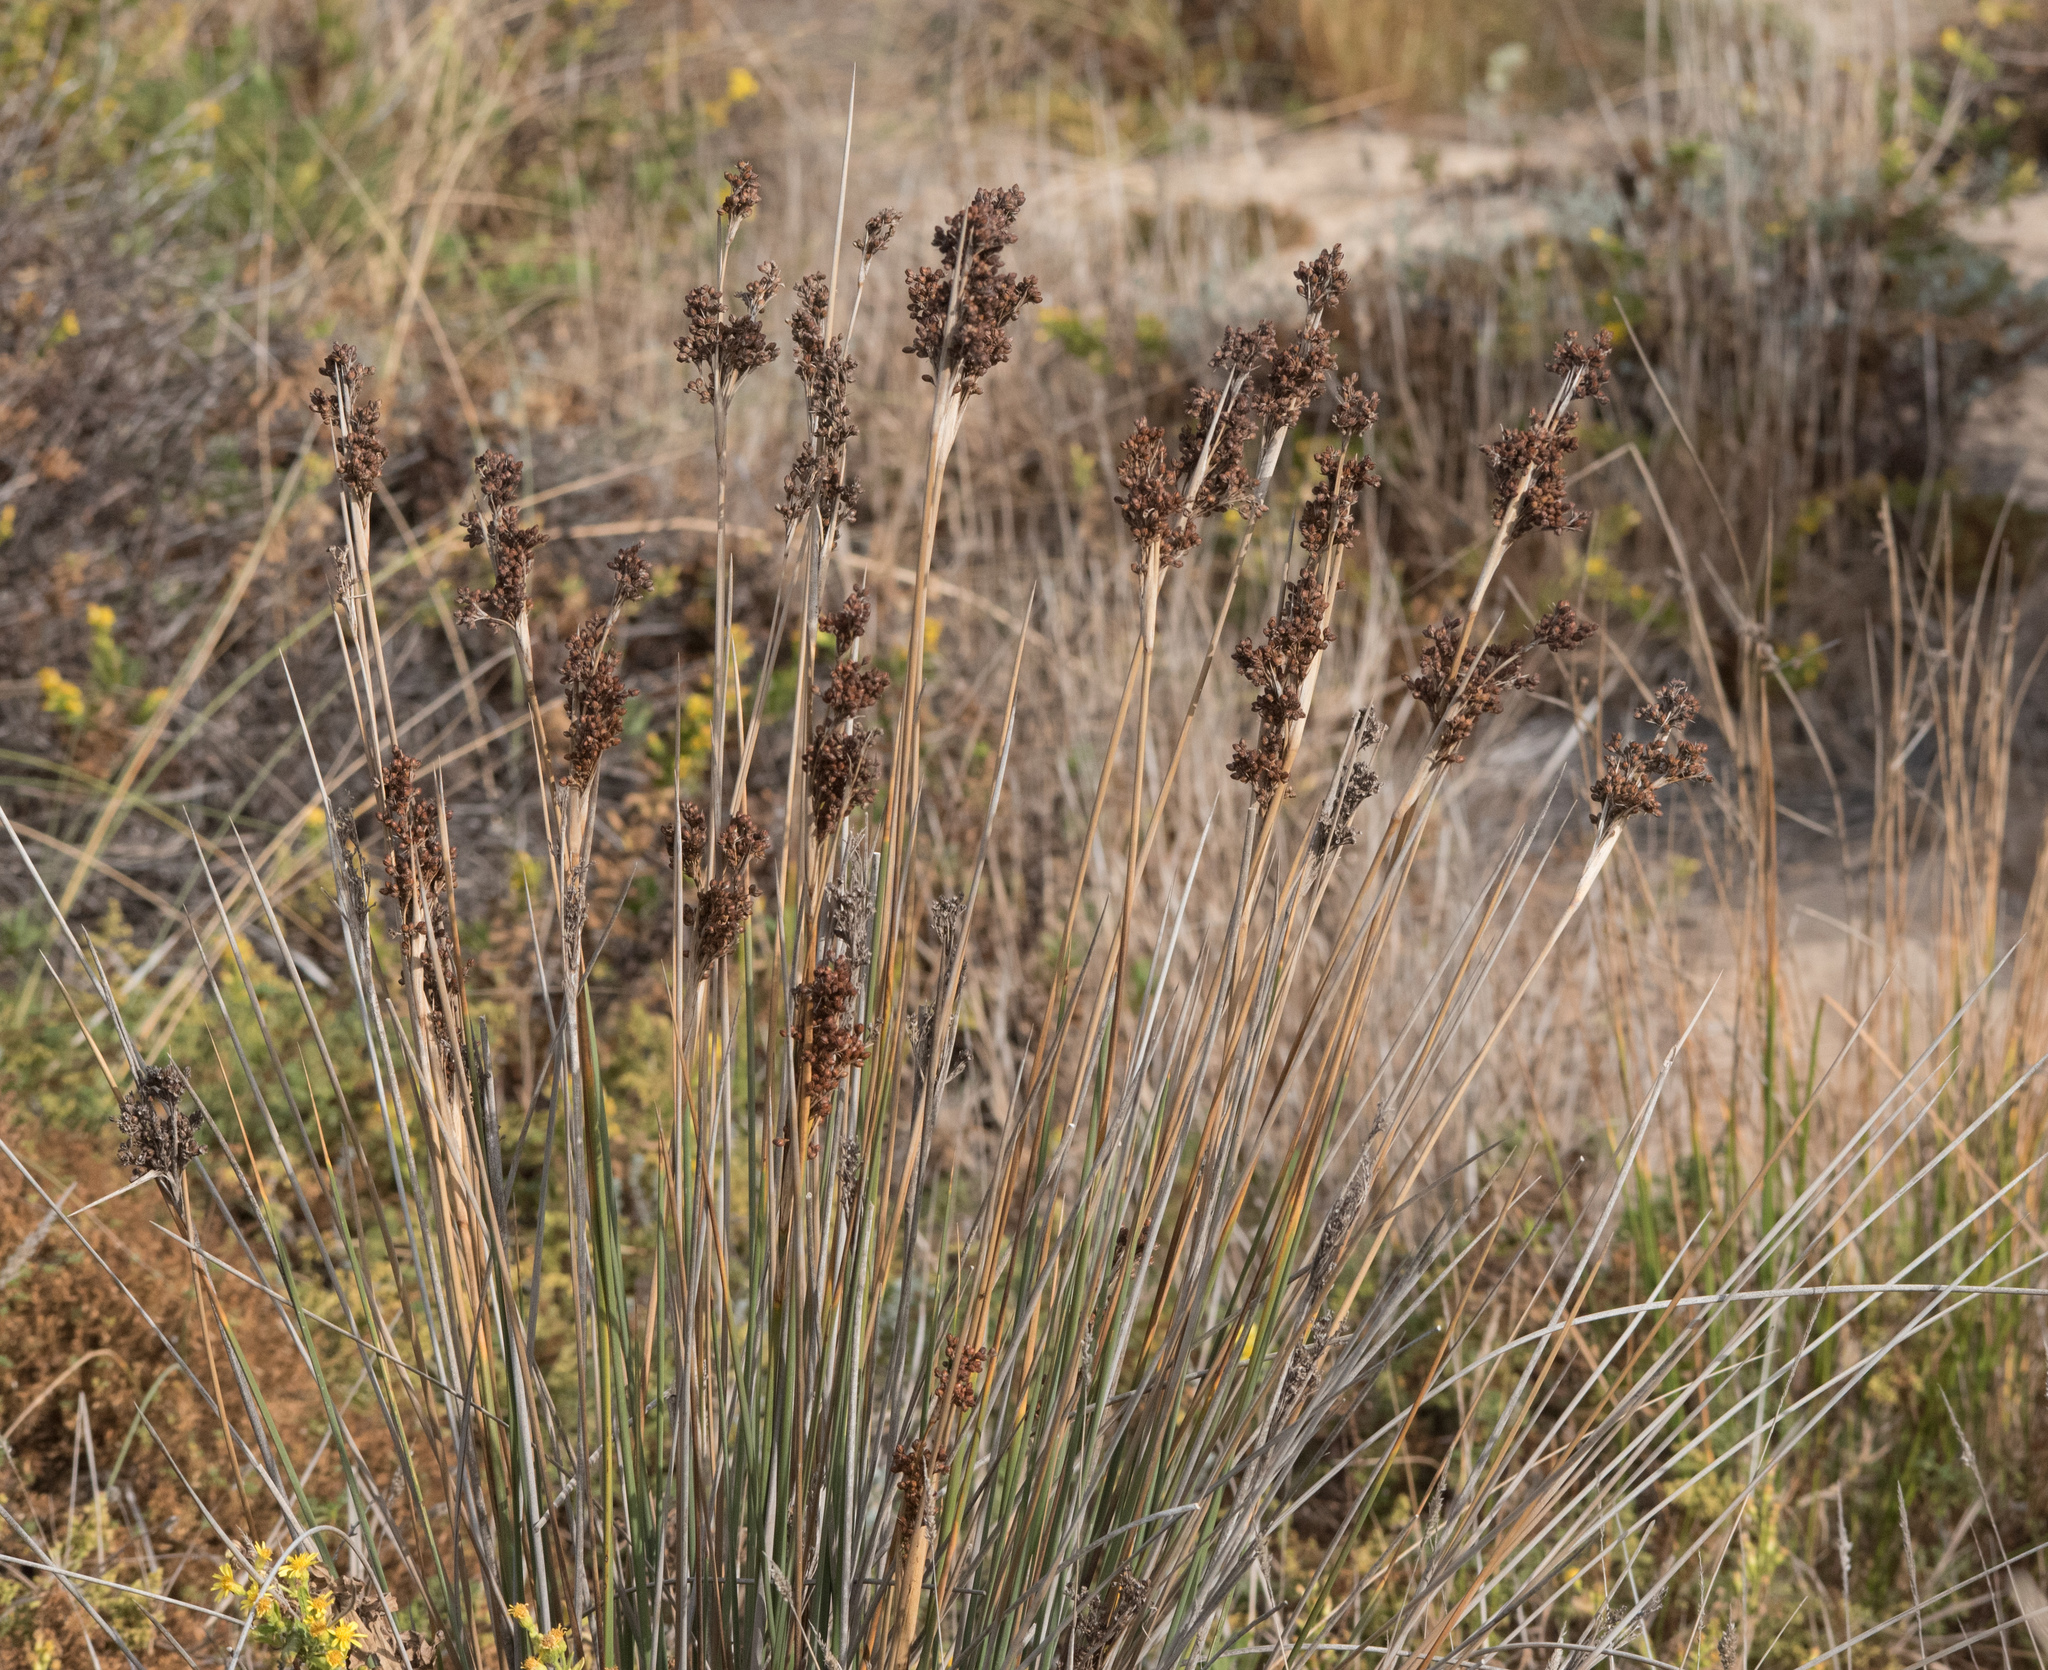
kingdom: Plantae
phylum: Tracheophyta
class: Liliopsida
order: Poales
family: Juncaceae
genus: Juncus
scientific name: Juncus acutus
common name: Sharp rush
